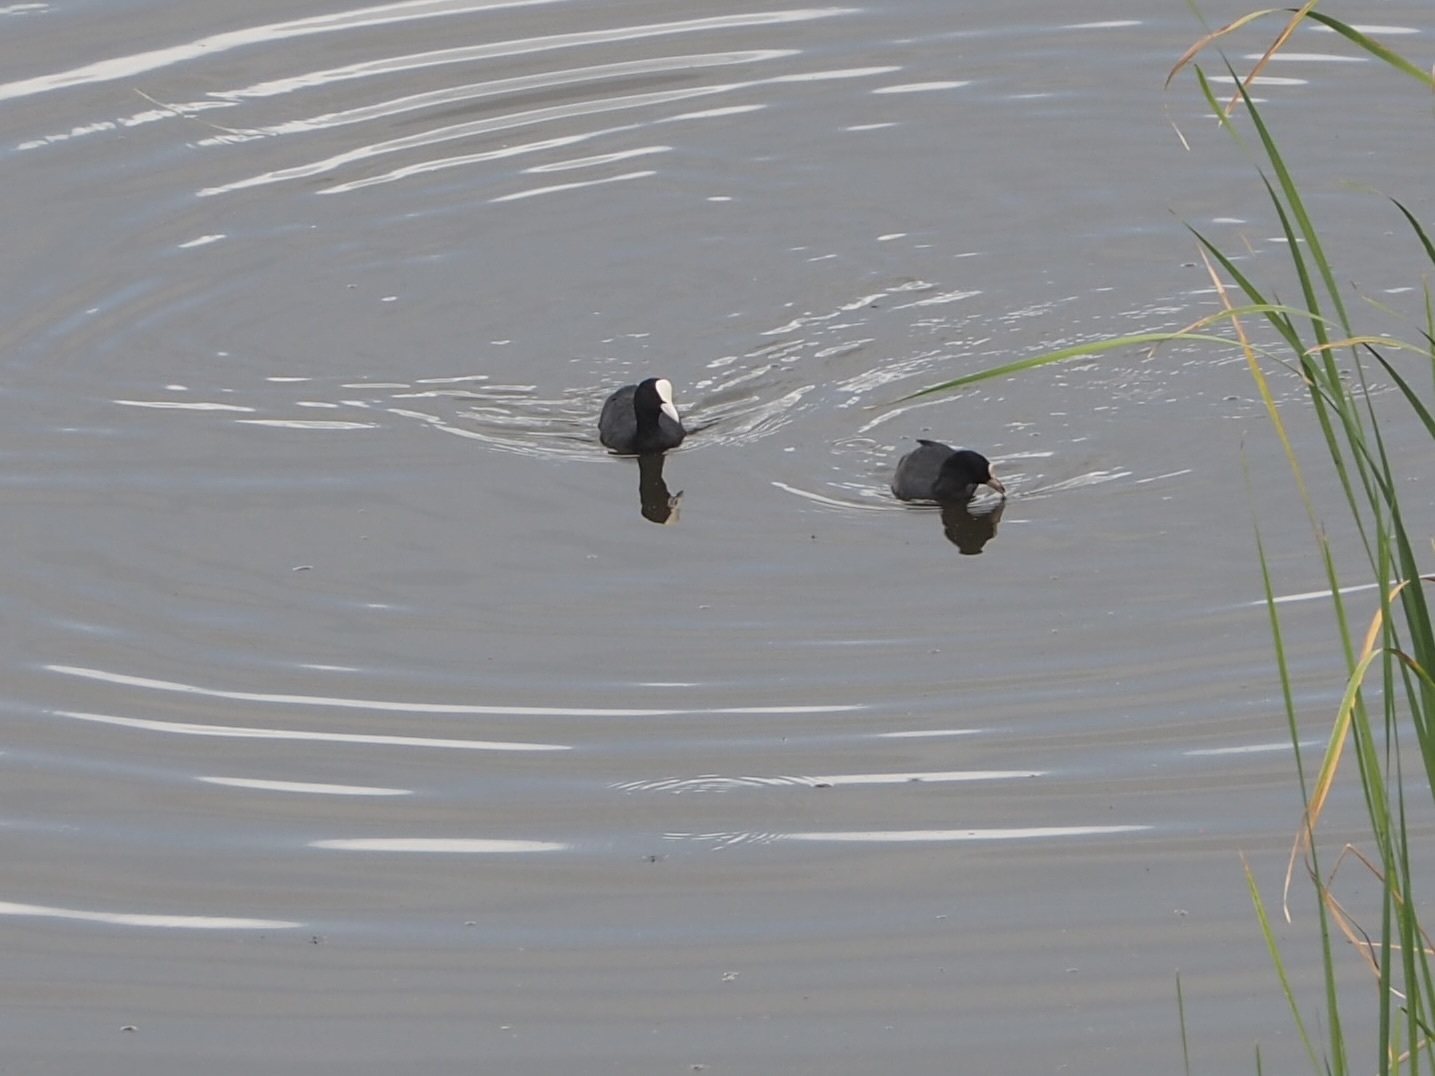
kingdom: Animalia
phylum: Chordata
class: Aves
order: Gruiformes
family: Rallidae
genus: Fulica
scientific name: Fulica atra
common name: Eurasian coot
